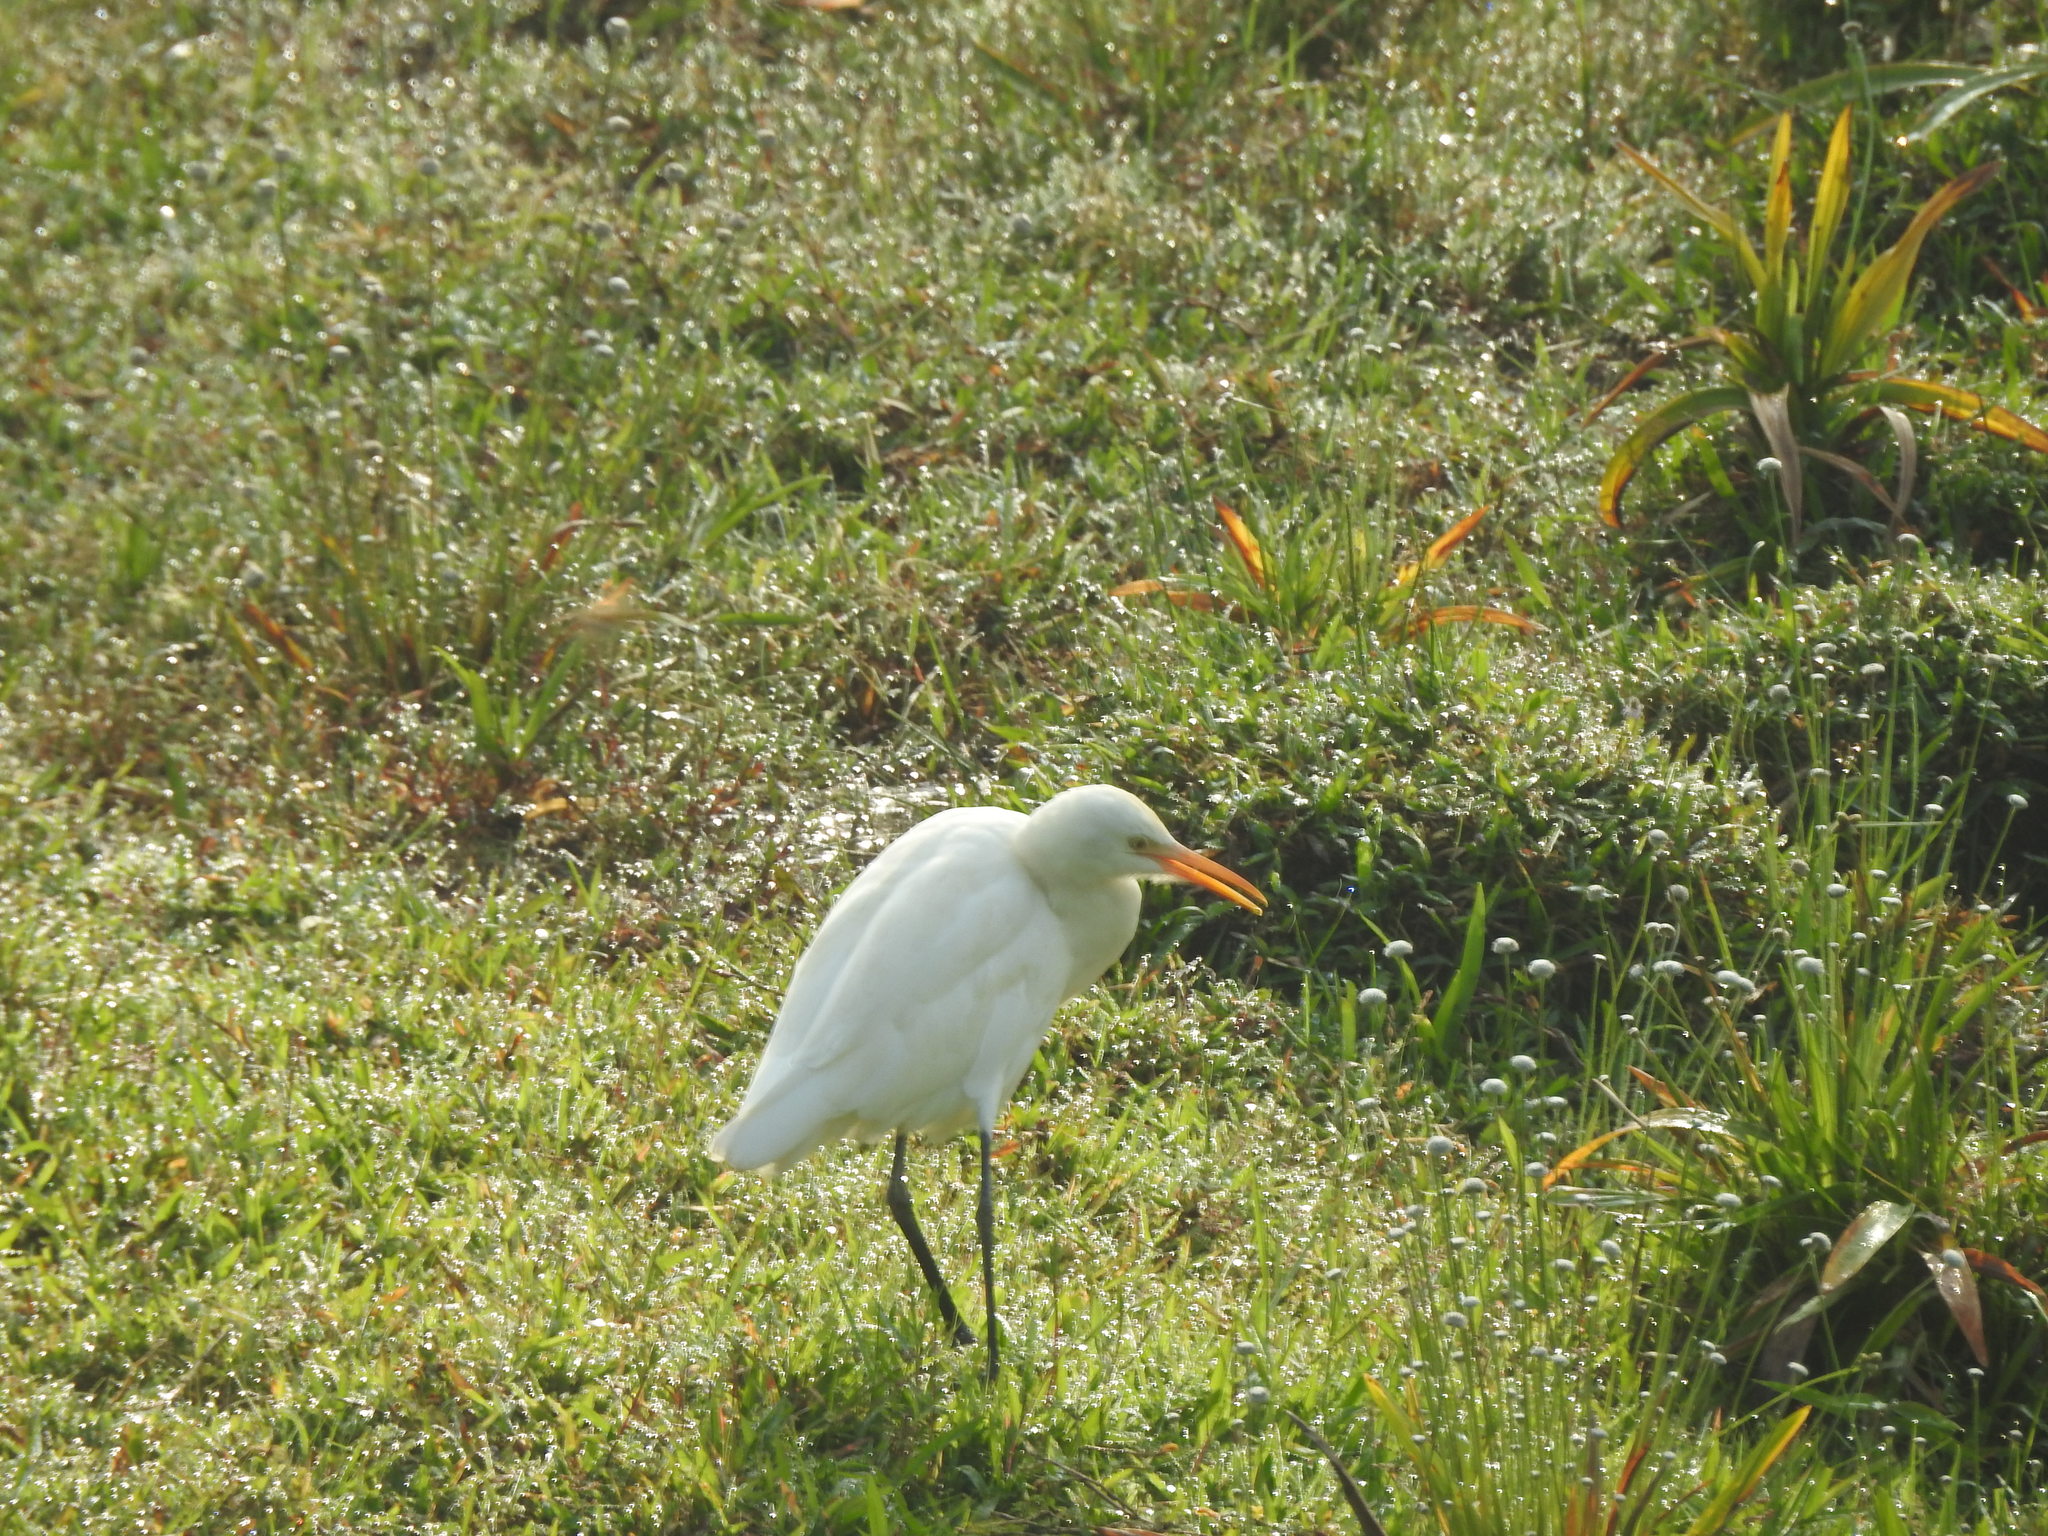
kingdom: Animalia
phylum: Chordata
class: Aves
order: Pelecaniformes
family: Ardeidae
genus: Bubulcus
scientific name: Bubulcus coromandus
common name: Eastern cattle egret
